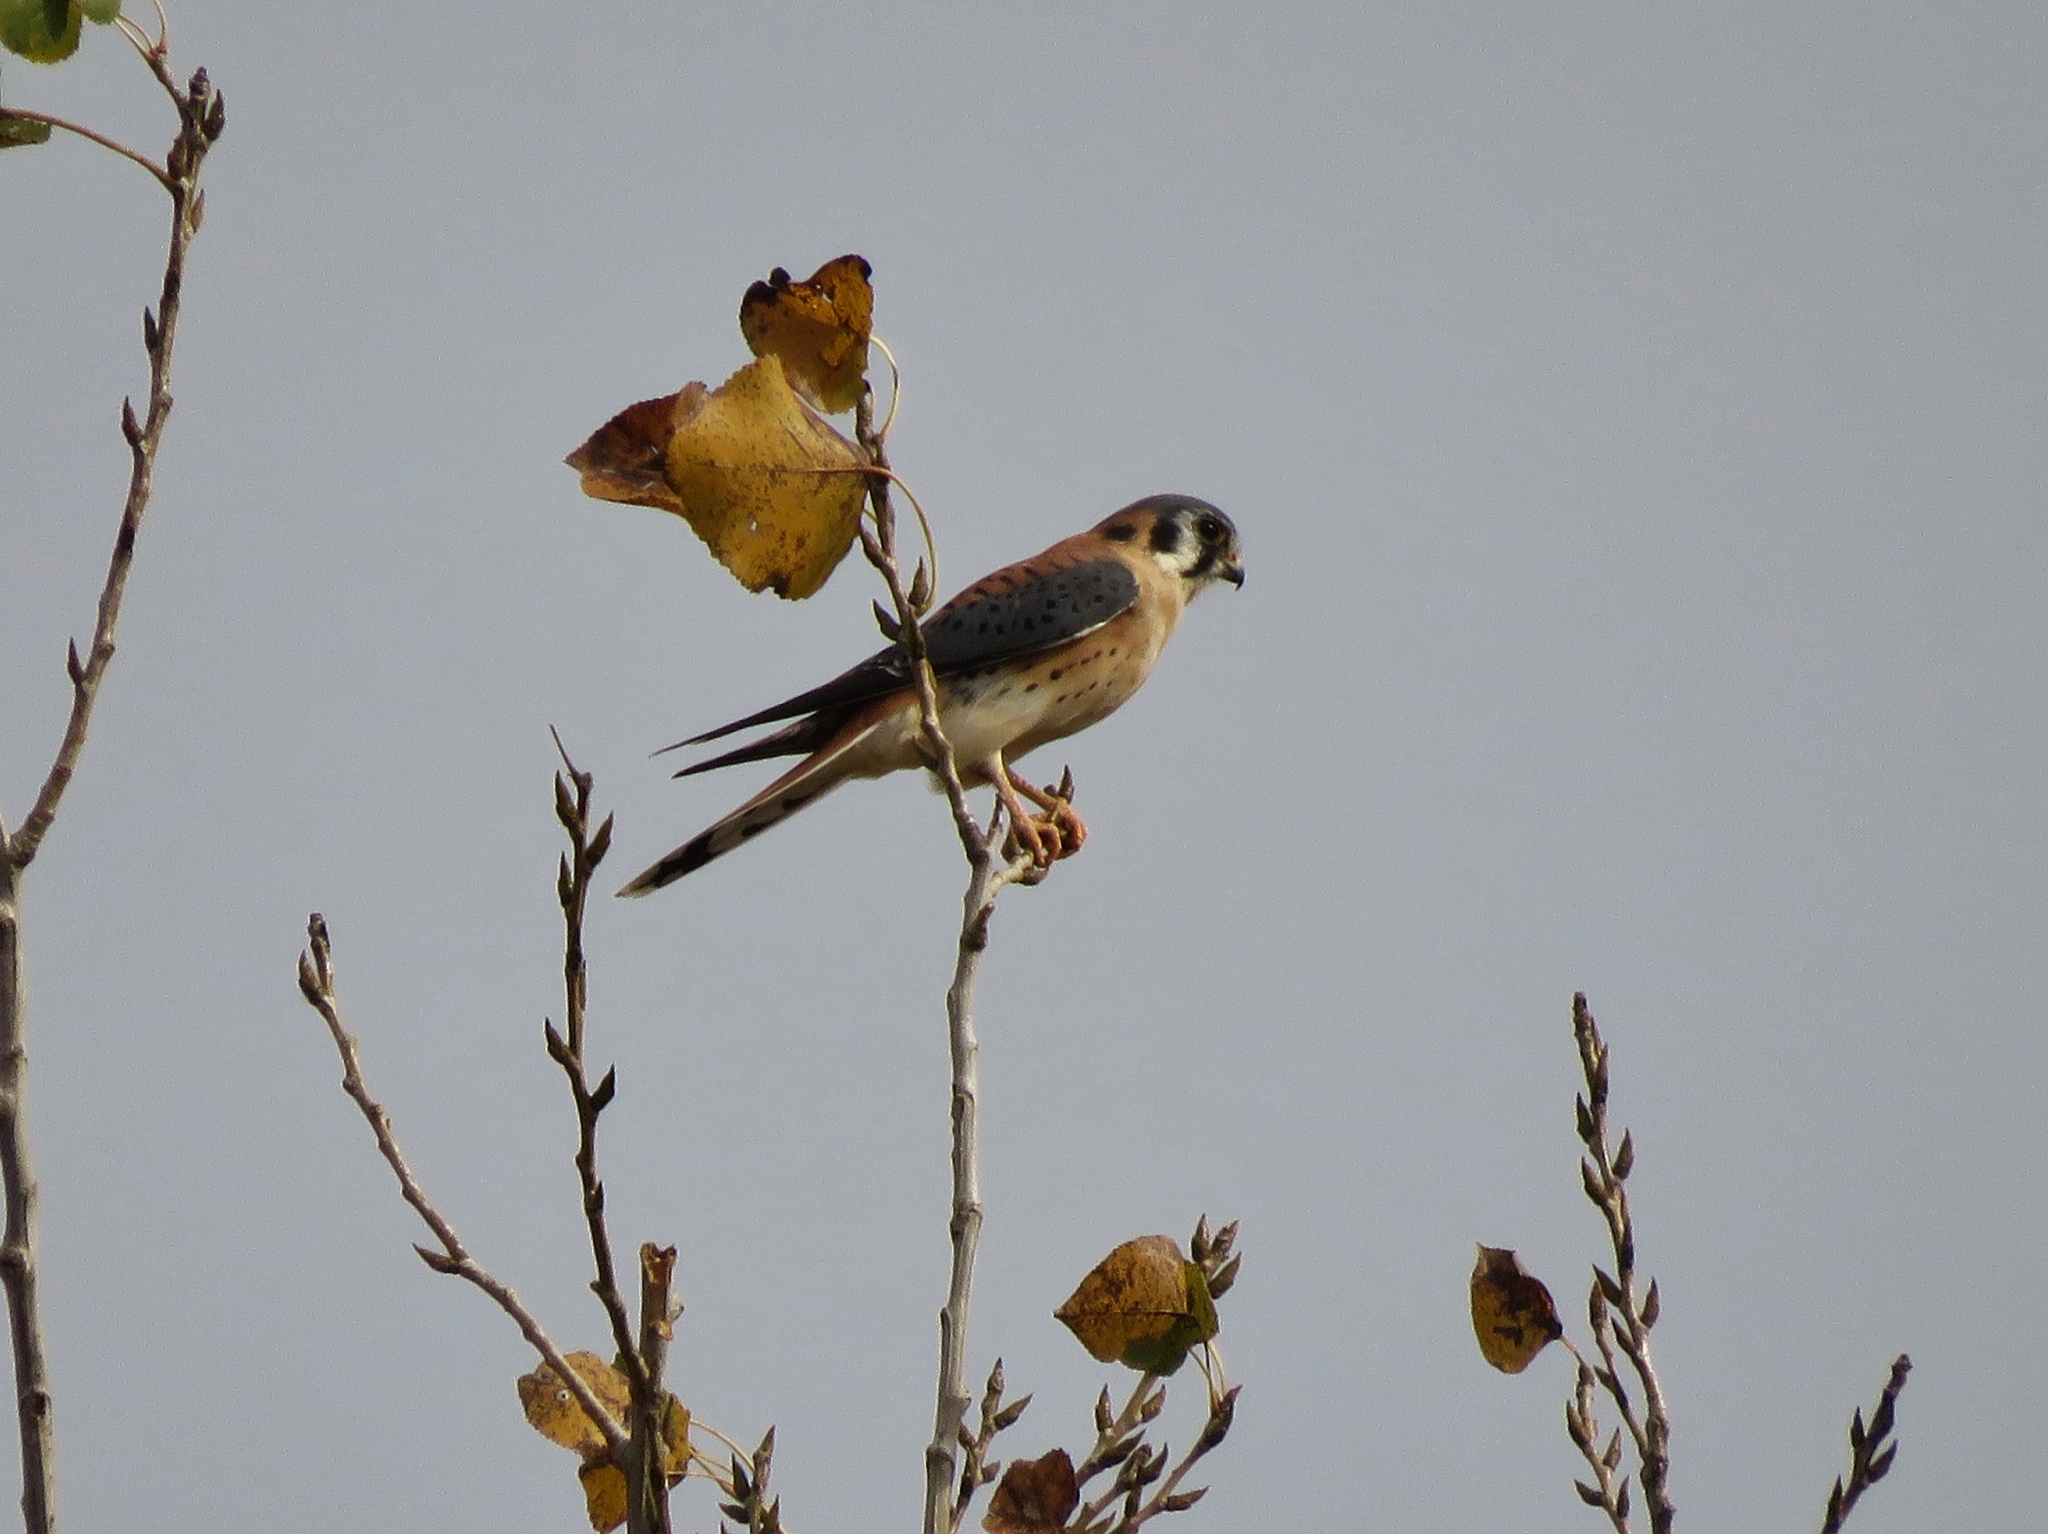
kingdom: Animalia
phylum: Chordata
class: Aves
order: Falconiformes
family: Falconidae
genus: Falco
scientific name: Falco sparverius
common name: American kestrel
